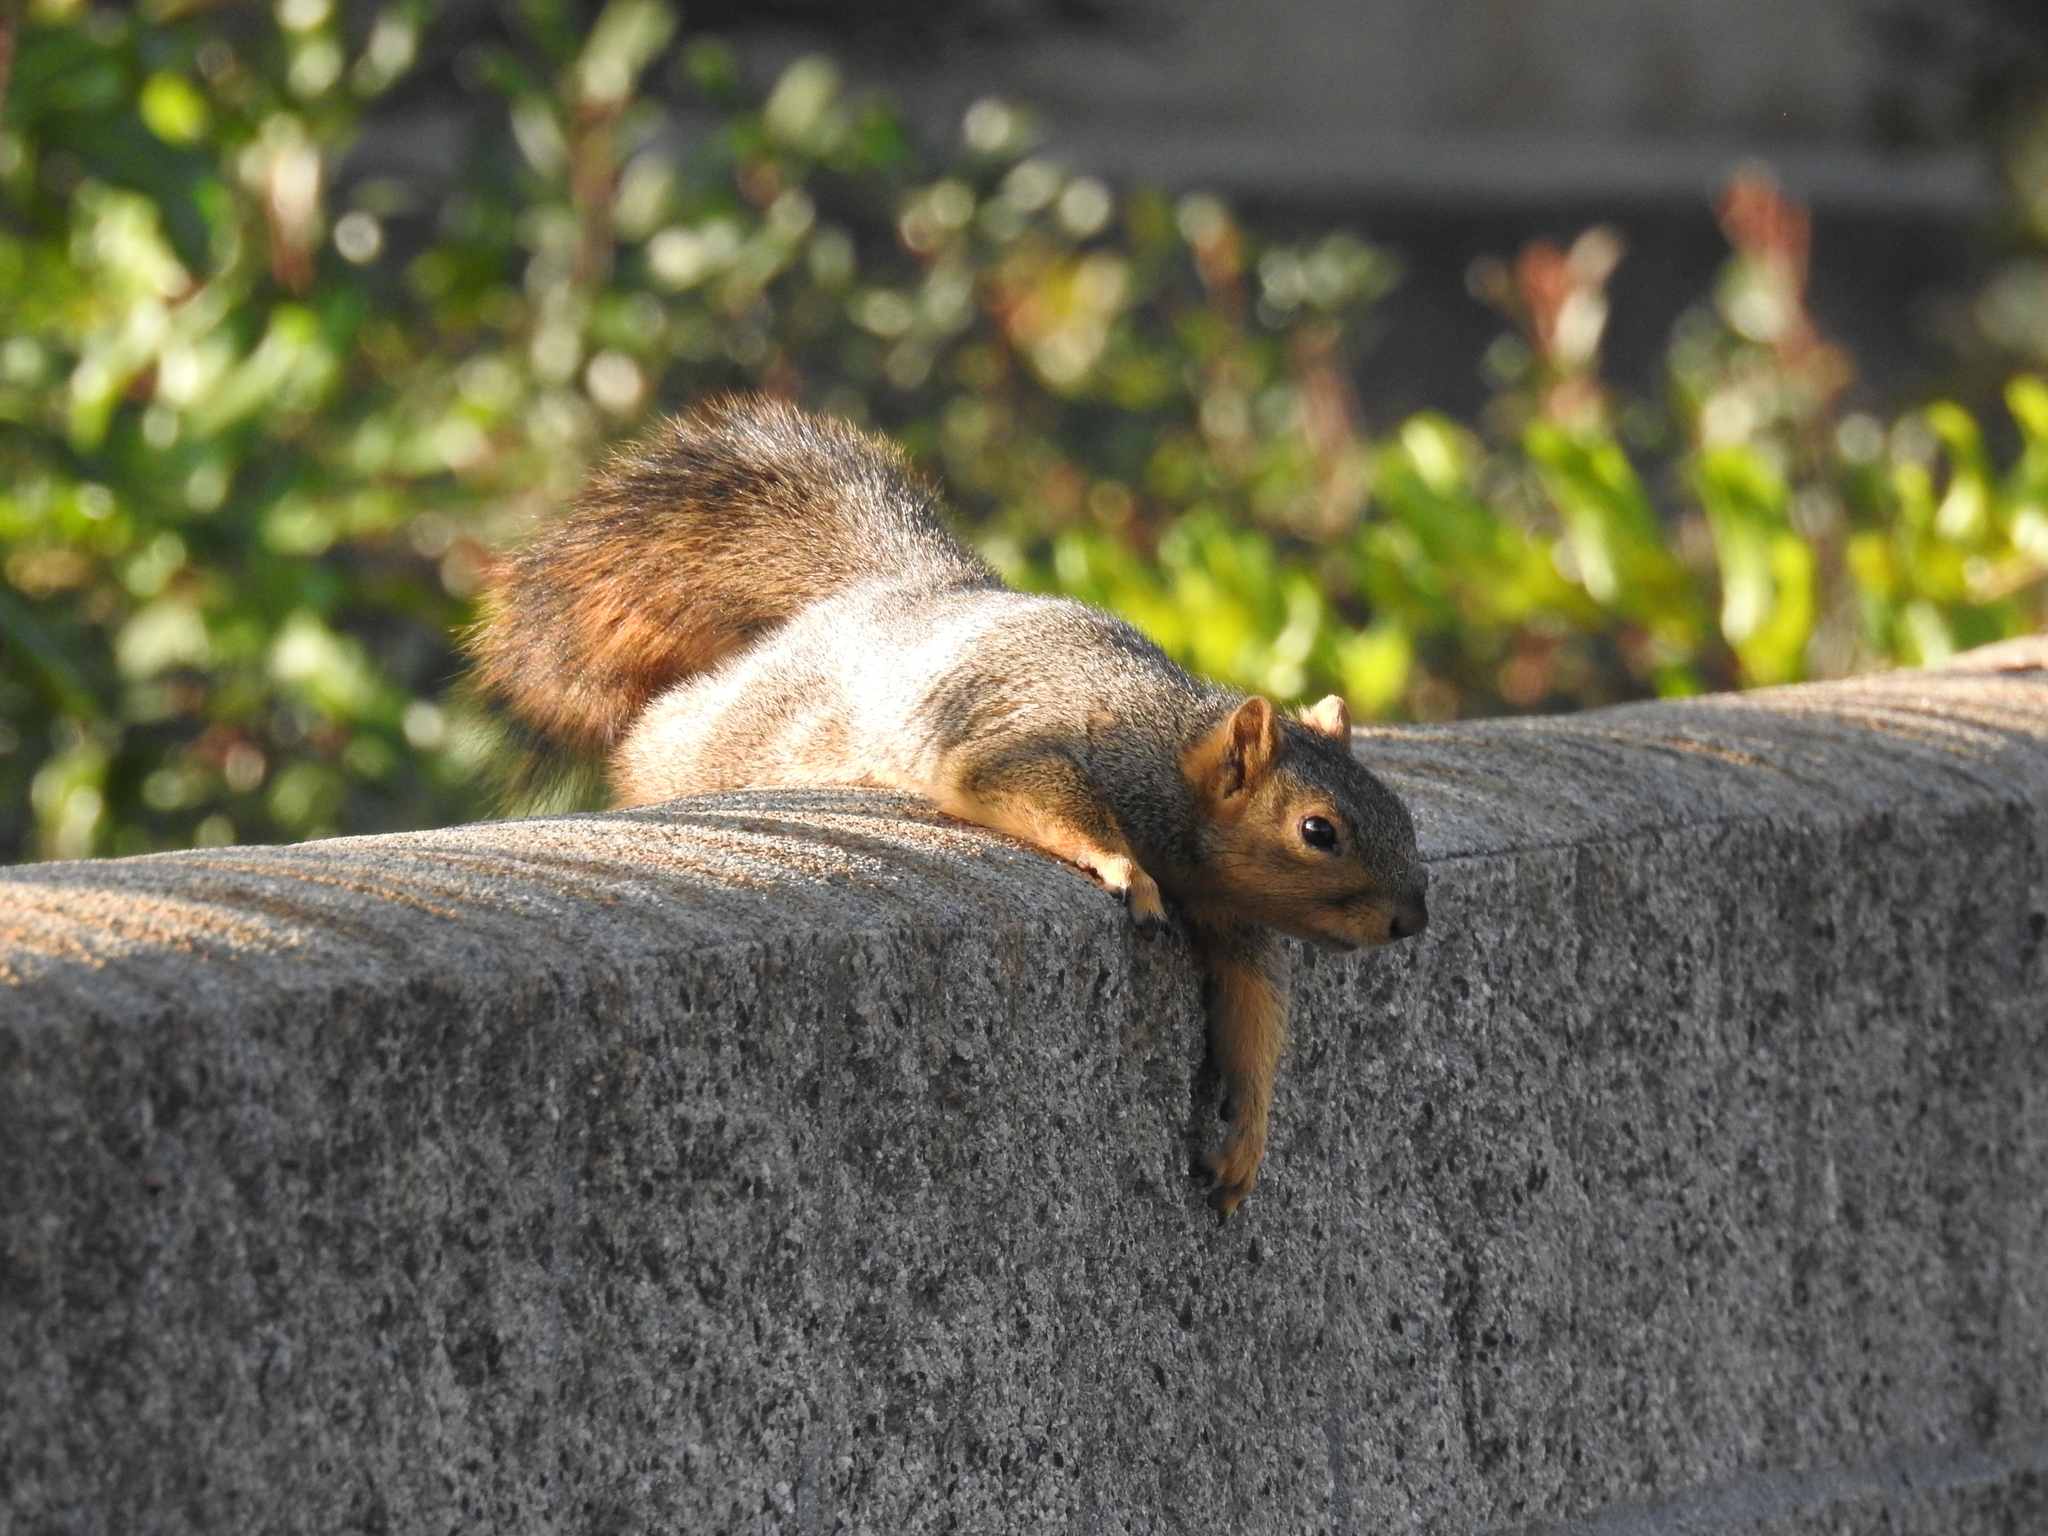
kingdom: Animalia
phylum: Chordata
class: Mammalia
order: Rodentia
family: Sciuridae
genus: Sciurus
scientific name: Sciurus niger
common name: Fox squirrel
